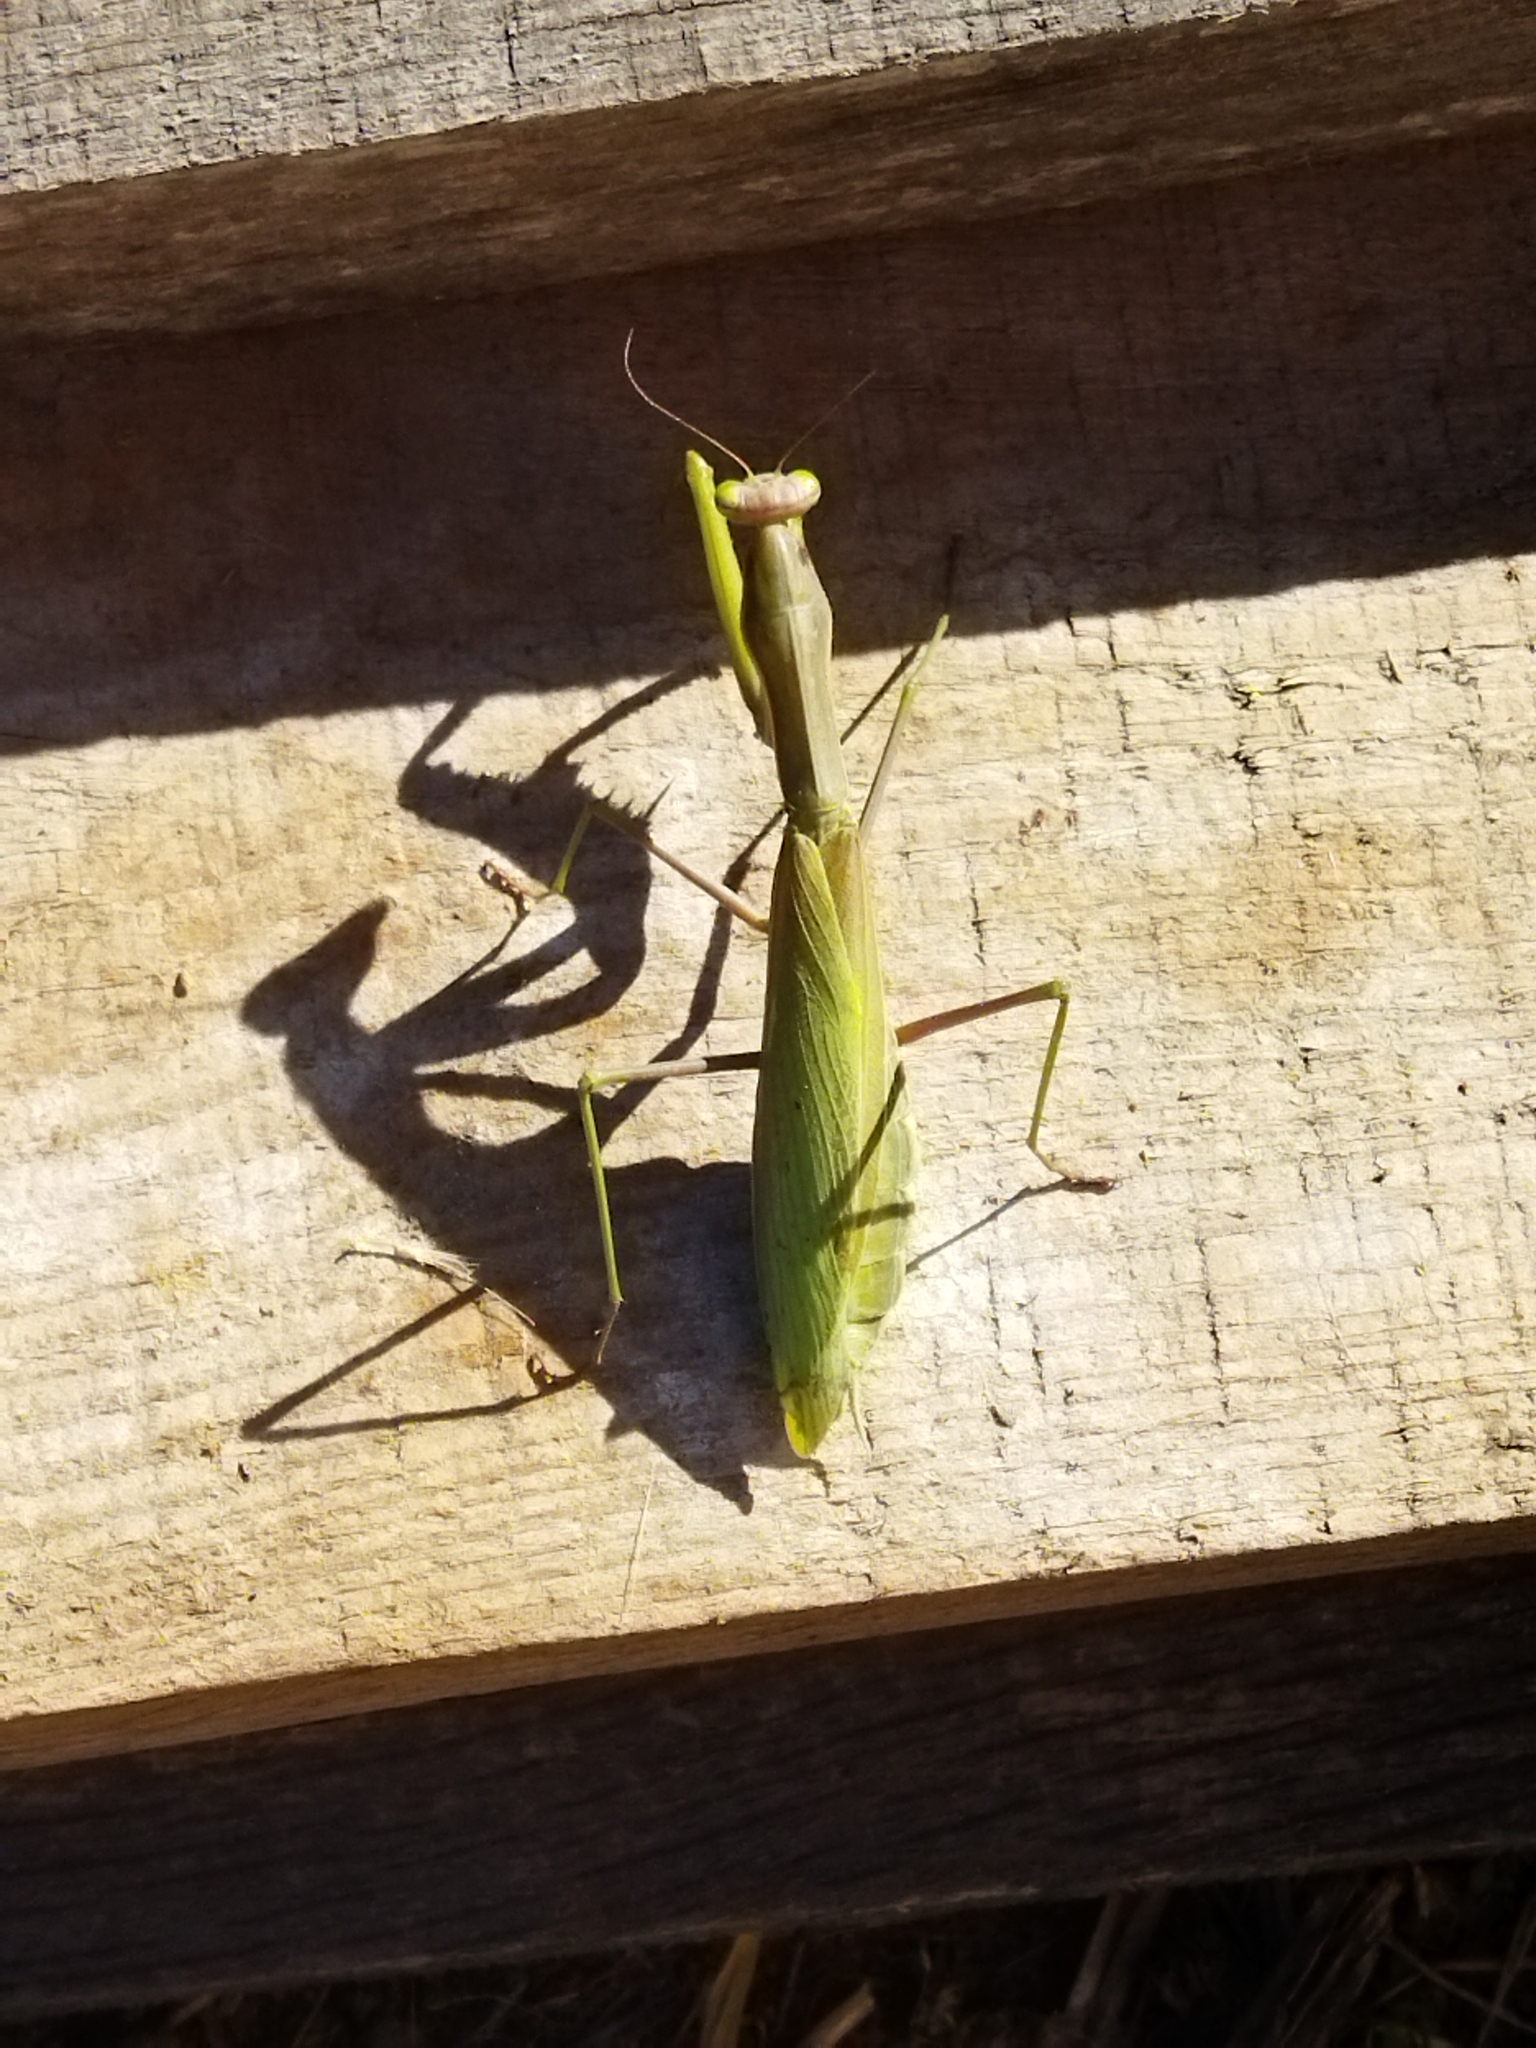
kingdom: Animalia
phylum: Arthropoda
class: Insecta
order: Mantodea
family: Mantidae
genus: Mantis
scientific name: Mantis religiosa
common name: Praying mantis
